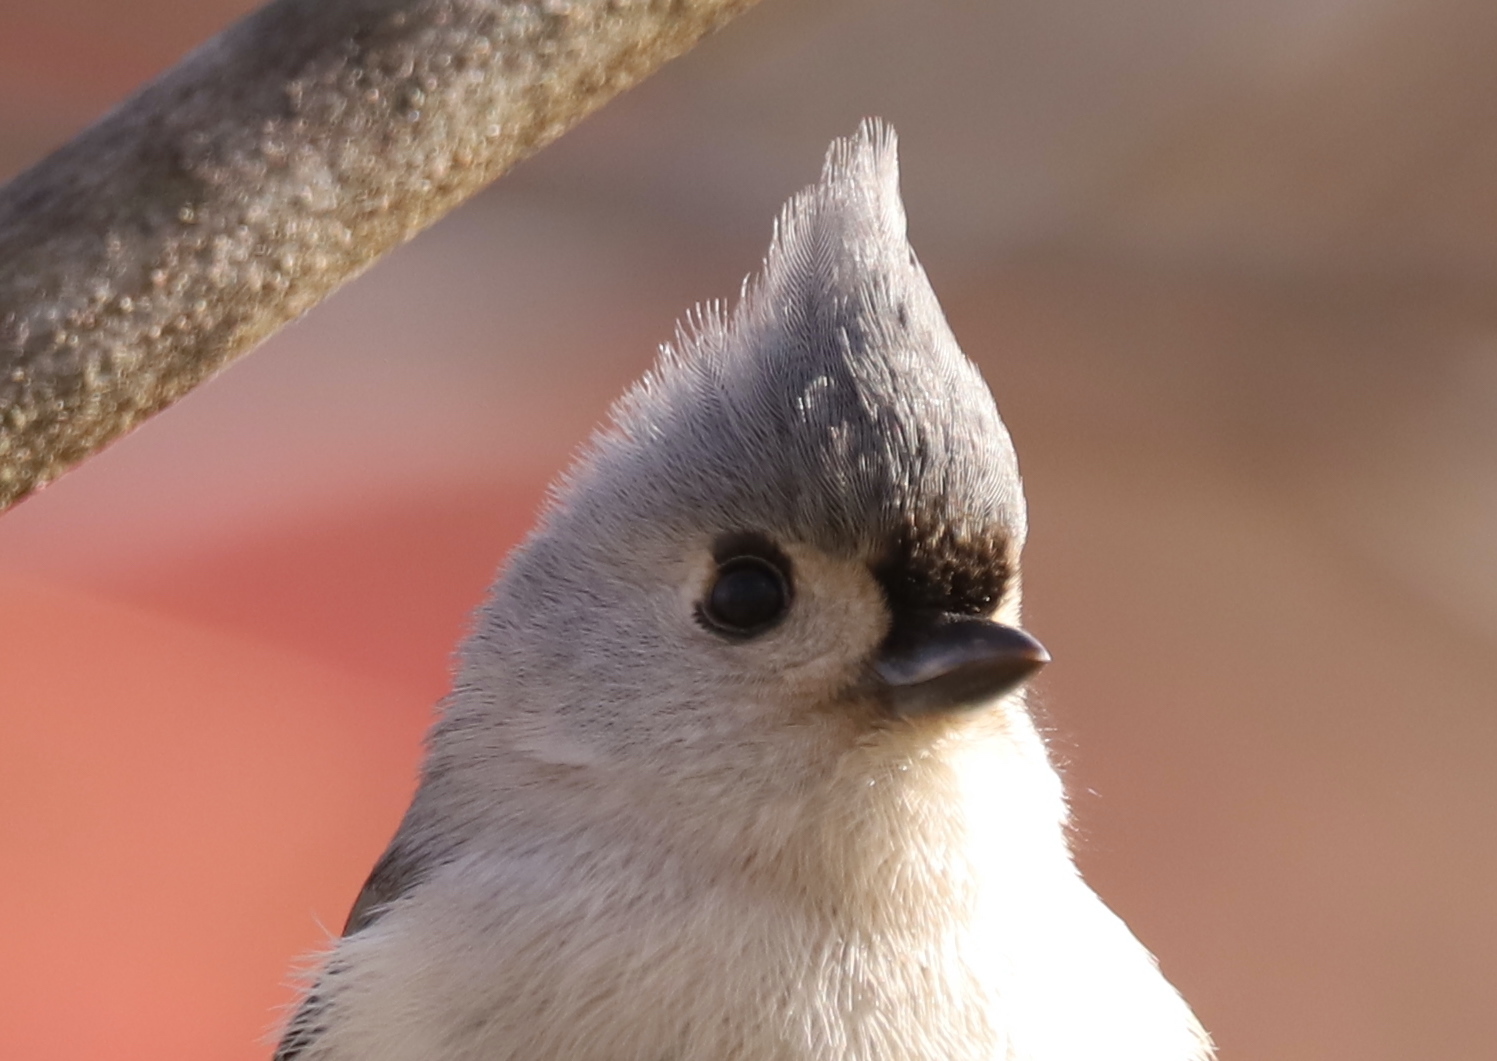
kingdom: Animalia
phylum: Chordata
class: Aves
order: Passeriformes
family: Paridae
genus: Baeolophus
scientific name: Baeolophus bicolor
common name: Tufted titmouse
